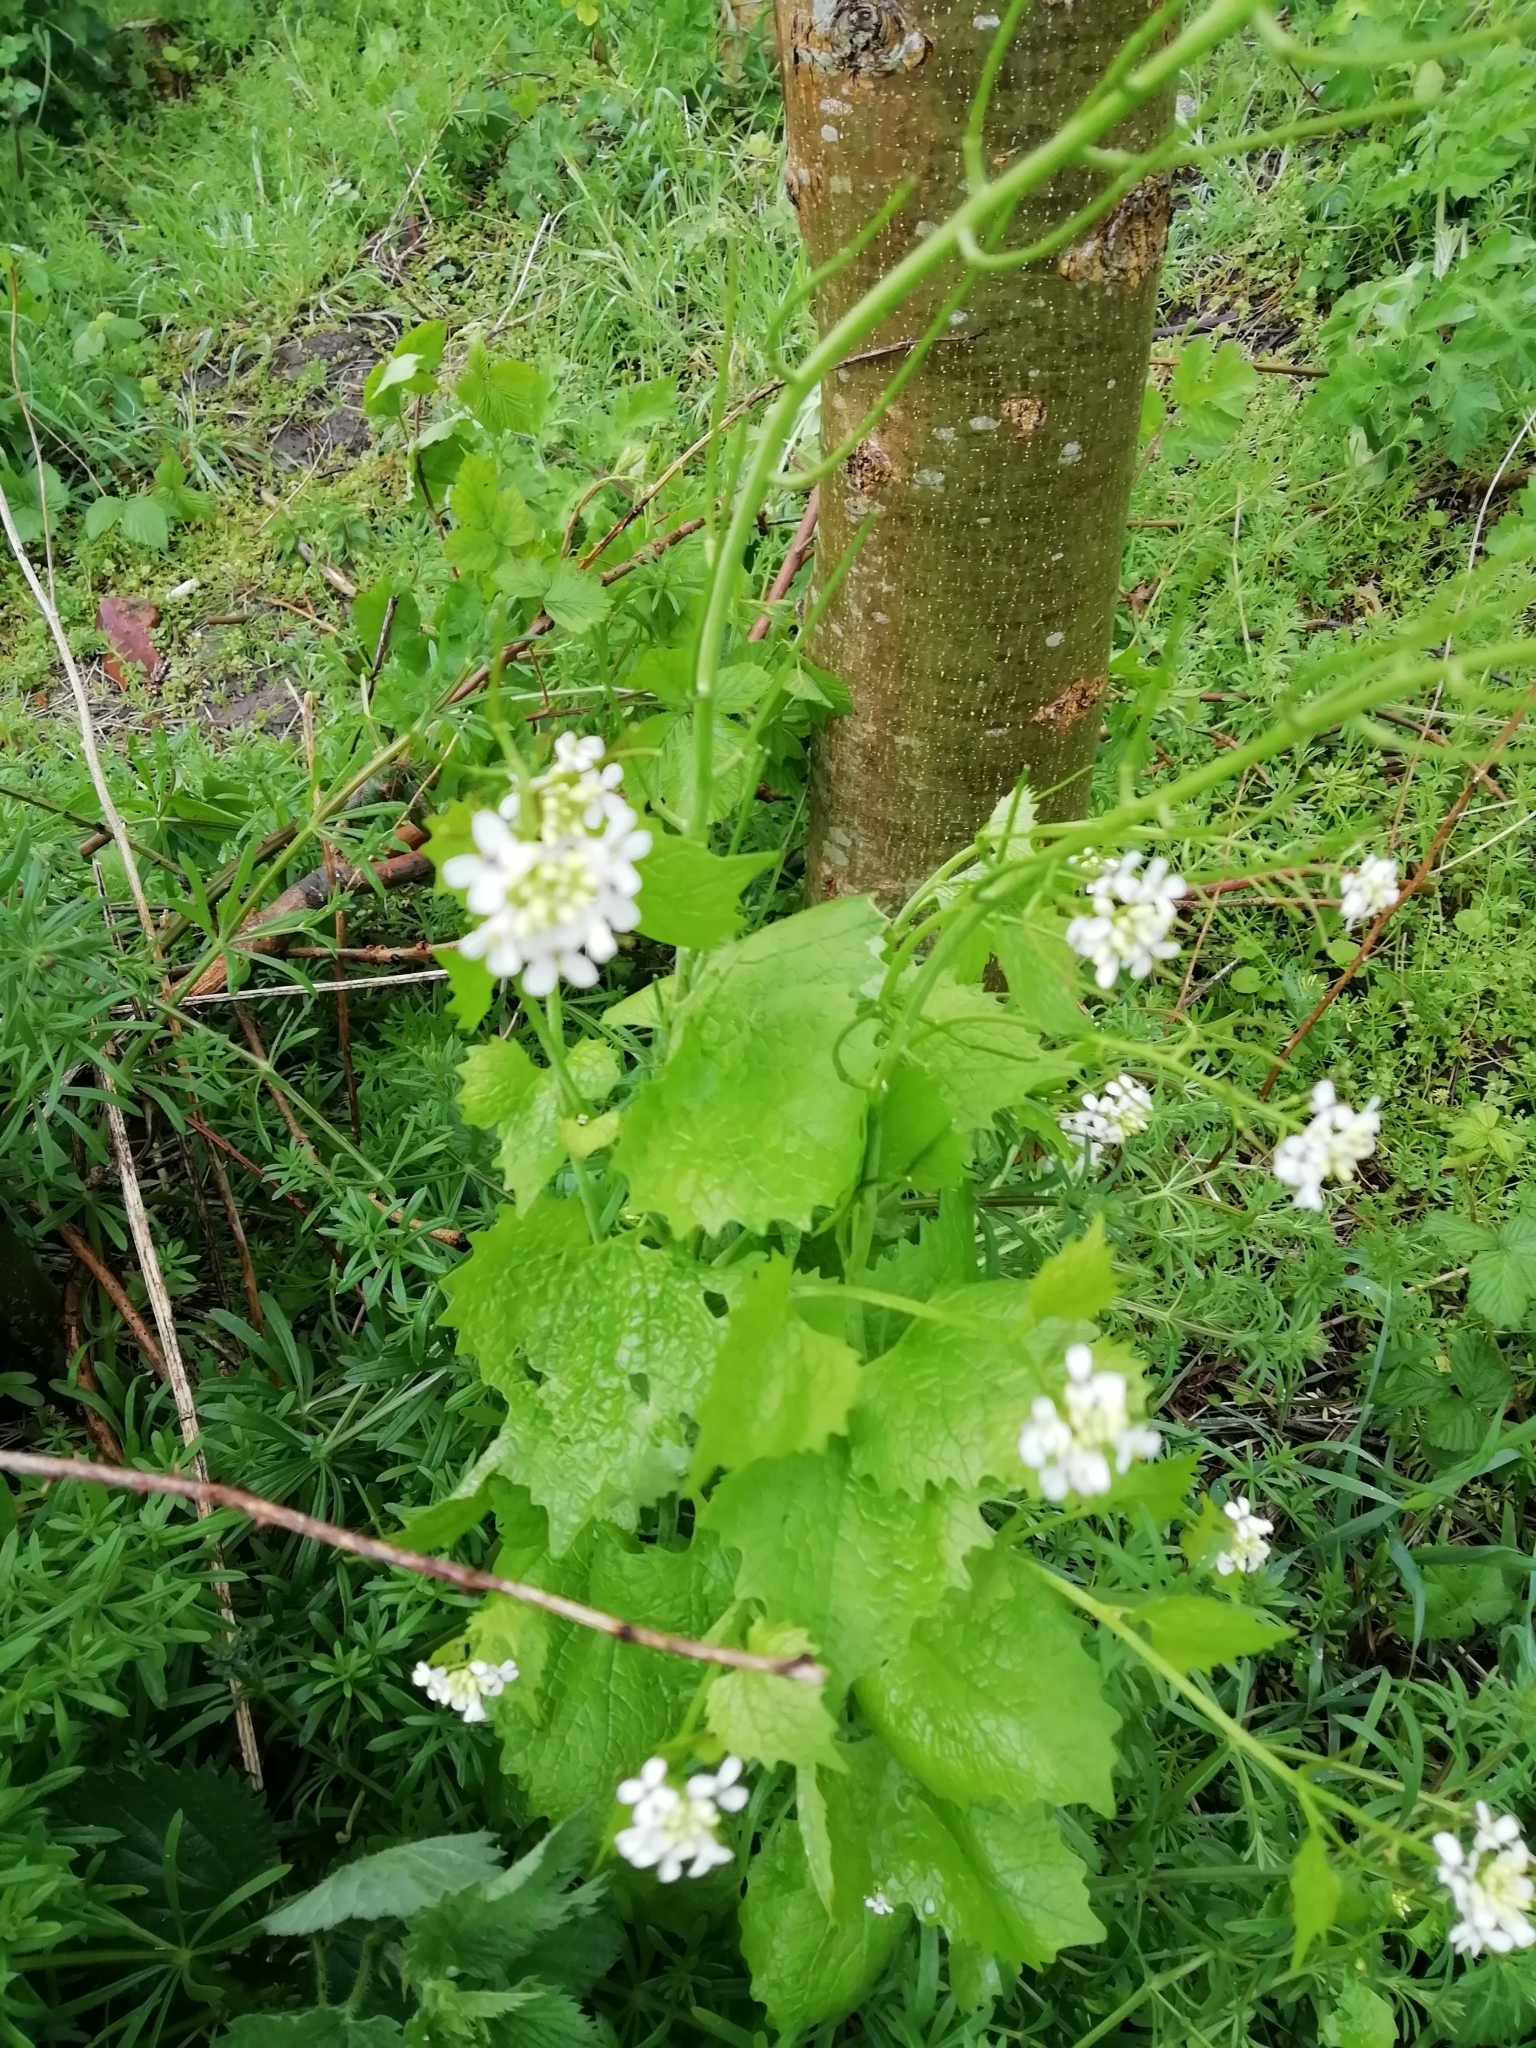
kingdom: Plantae
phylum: Tracheophyta
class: Magnoliopsida
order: Brassicales
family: Brassicaceae
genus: Alliaria
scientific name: Alliaria petiolata
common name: Garlic mustard
